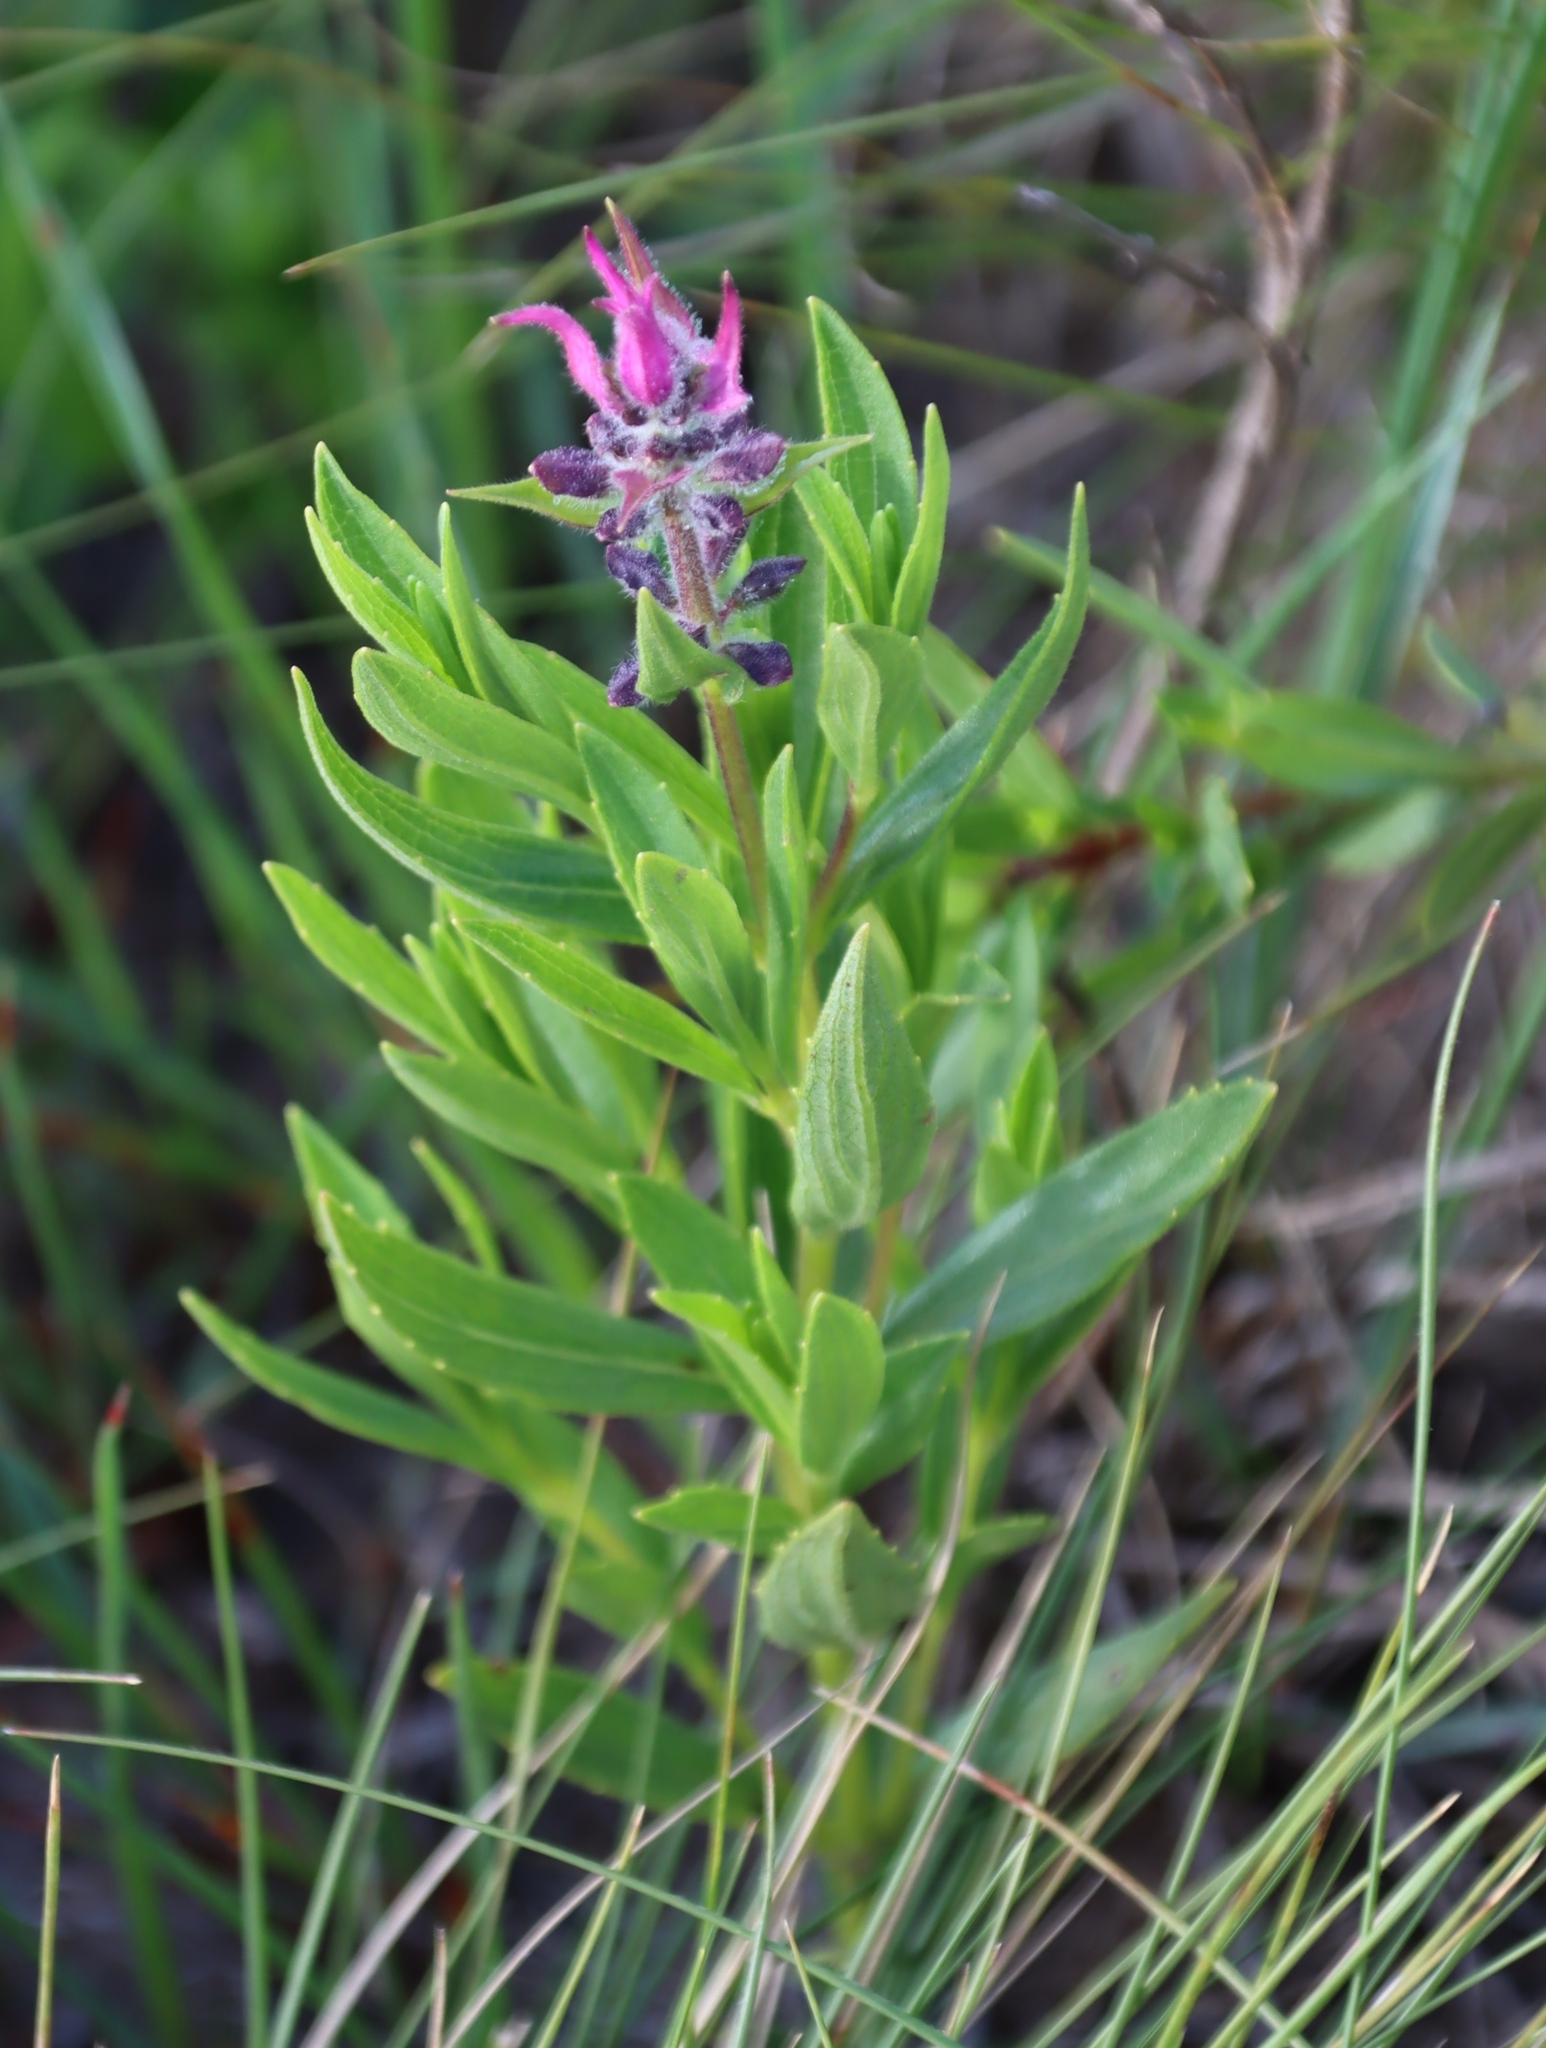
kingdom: Plantae
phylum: Tracheophyta
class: Magnoliopsida
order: Lamiales
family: Lamiaceae
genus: Syncolostemon
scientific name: Syncolostemon thorncroftii
